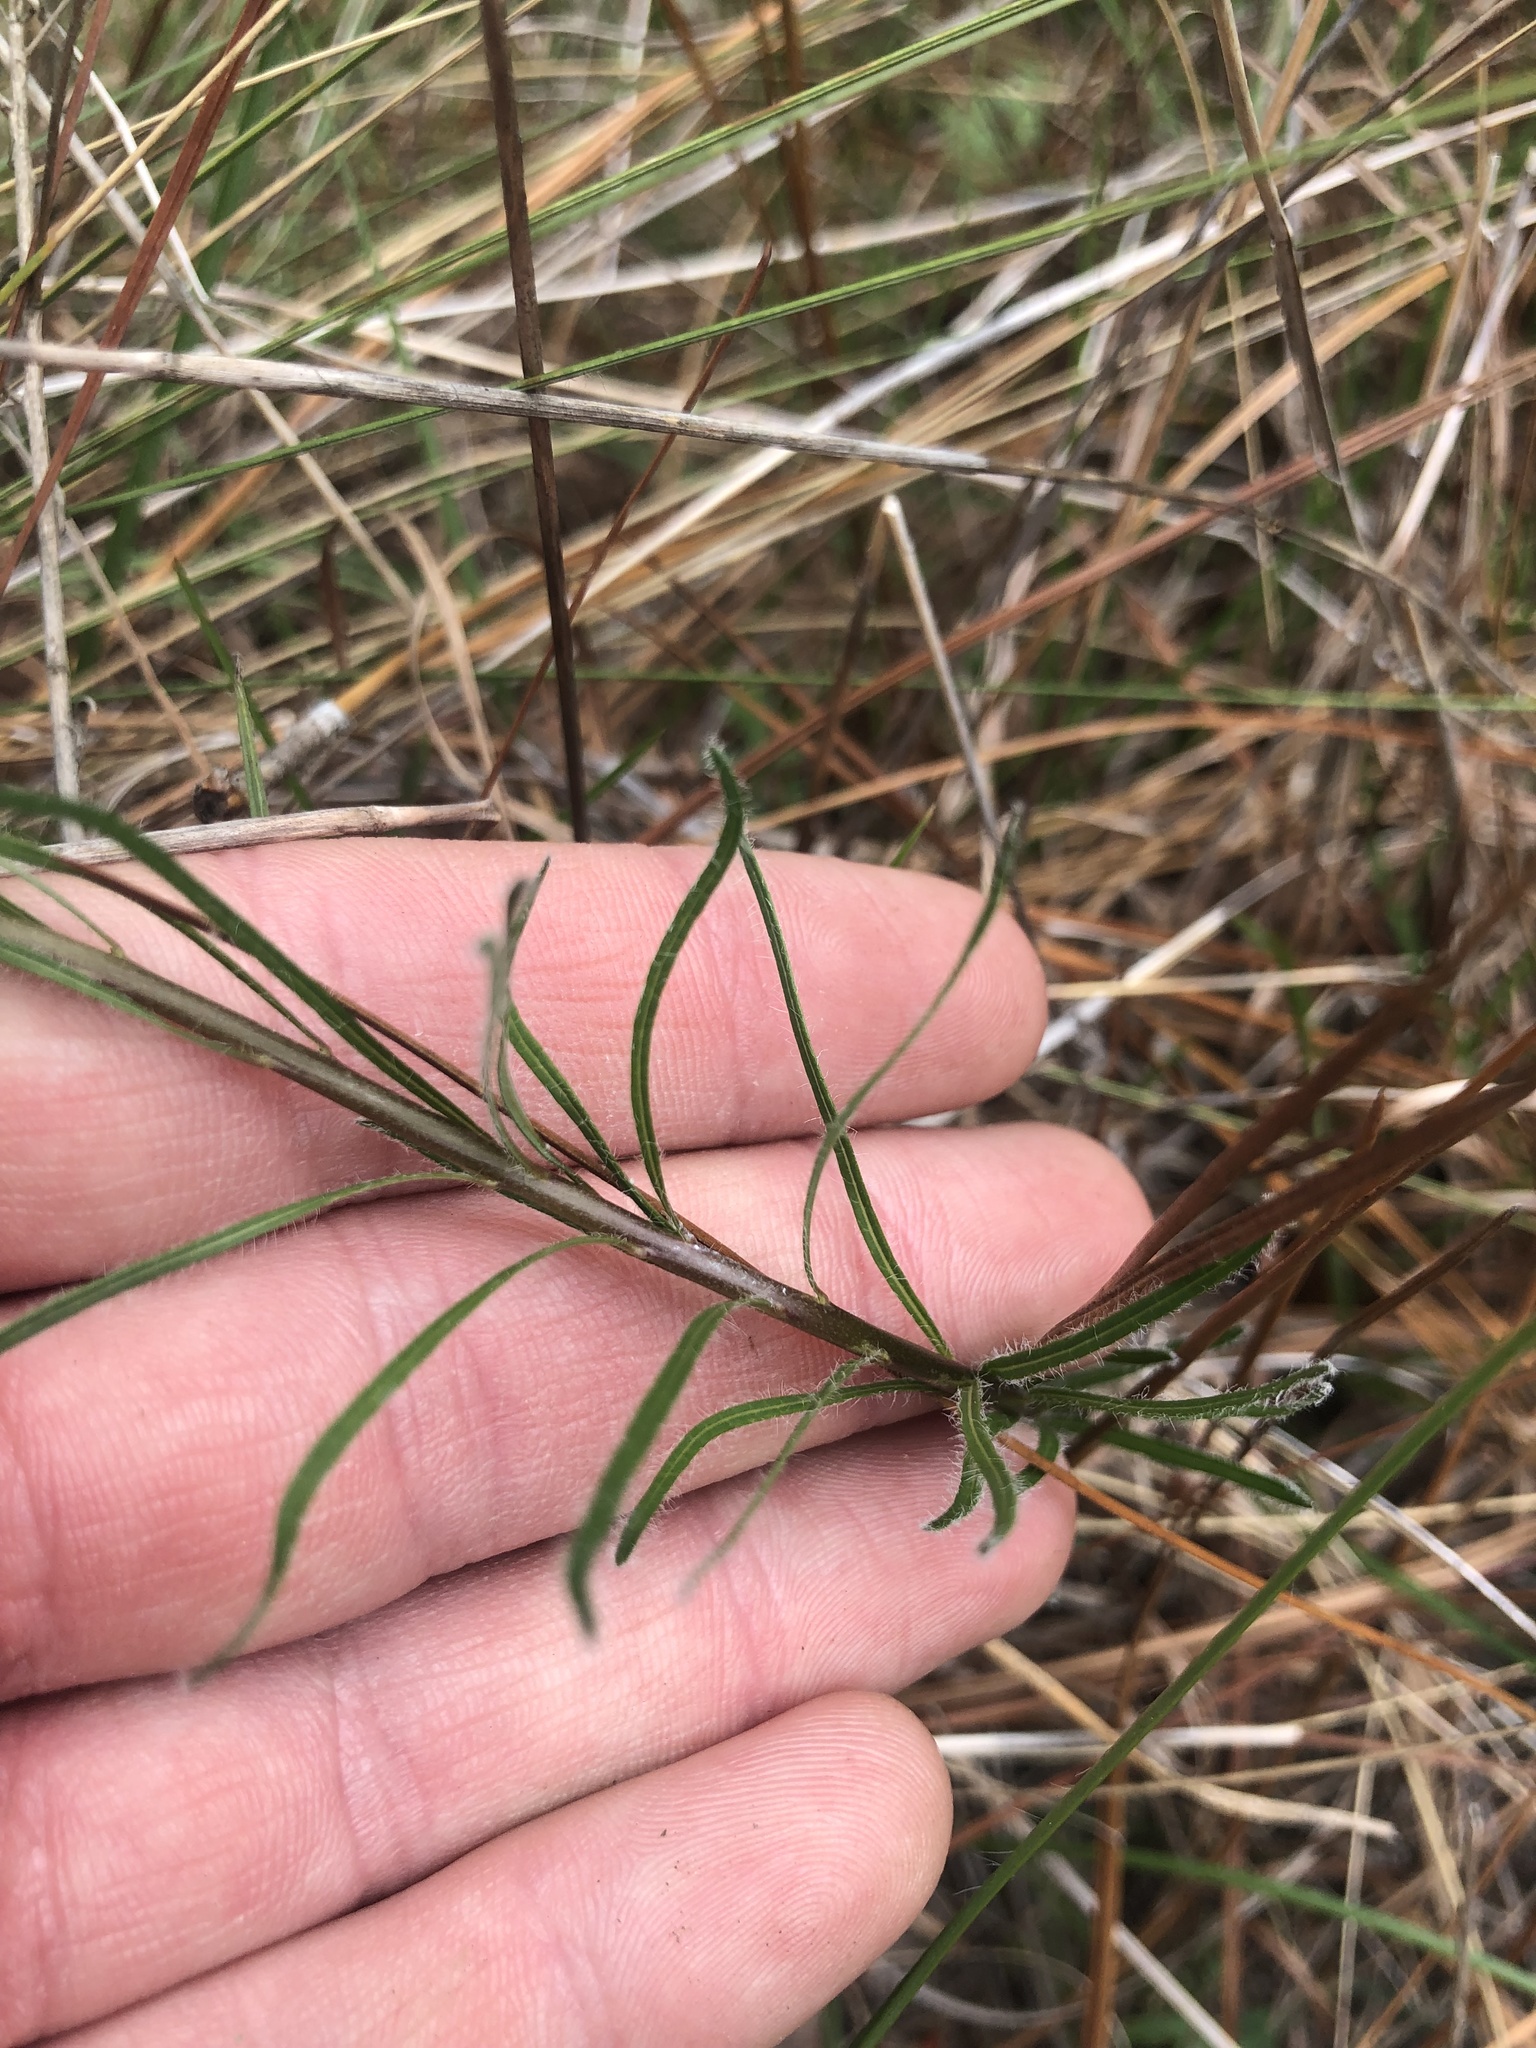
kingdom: Plantae
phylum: Tracheophyta
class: Magnoliopsida
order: Gentianales
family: Apocynaceae
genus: Amsonia
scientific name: Amsonia ciliata
